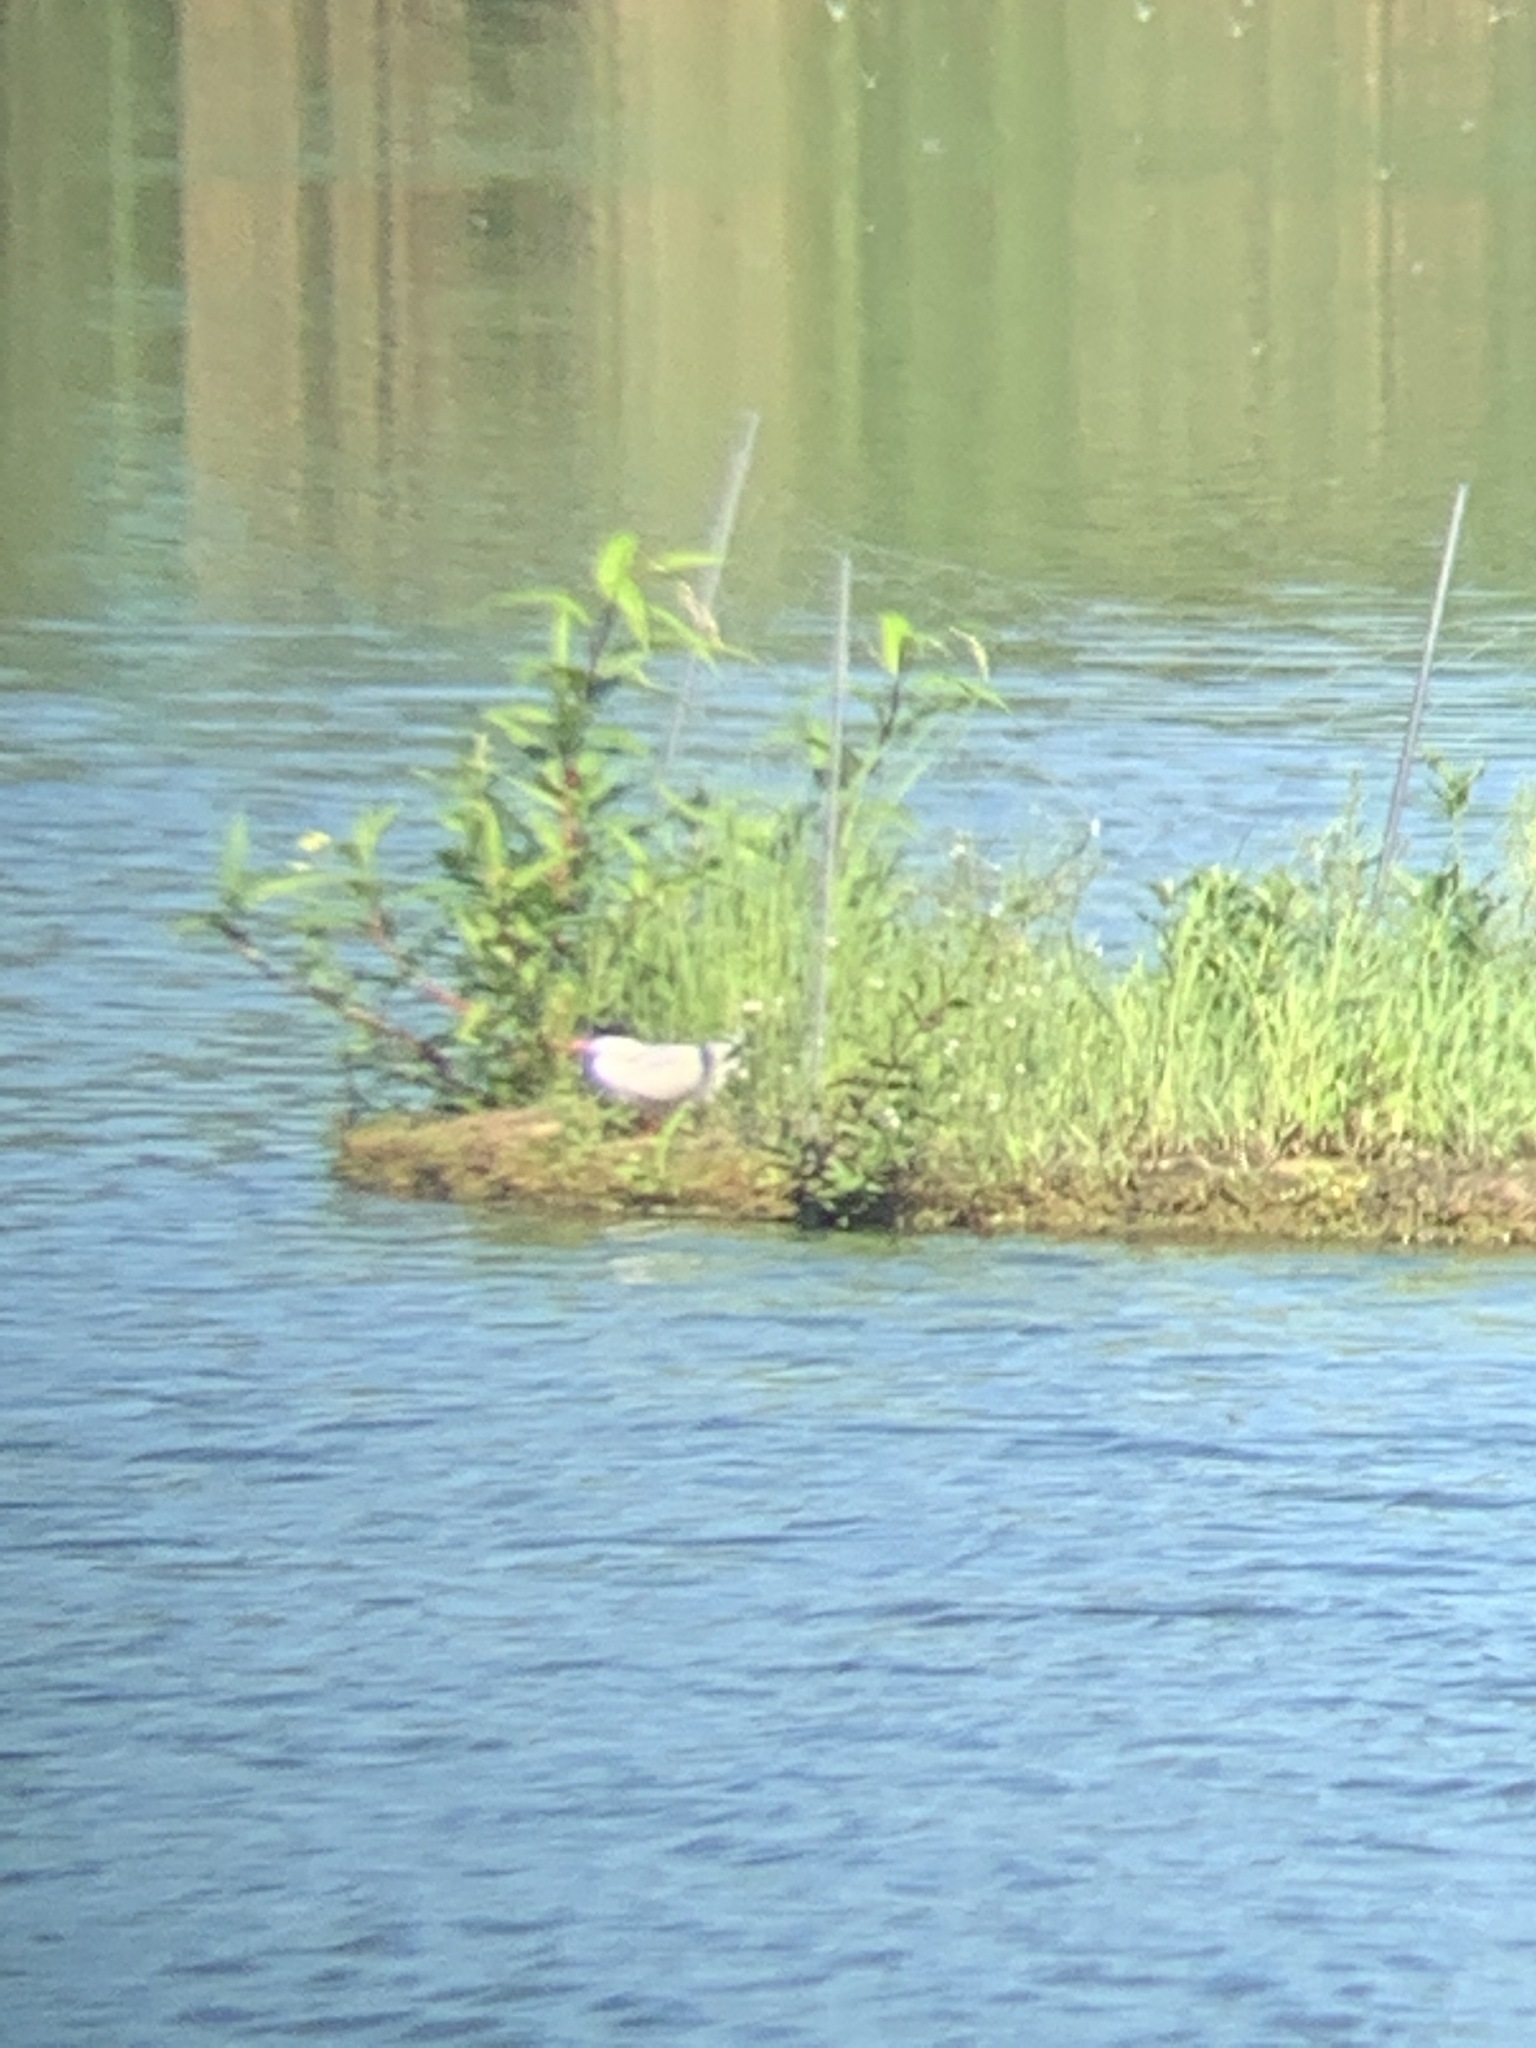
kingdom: Animalia
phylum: Chordata
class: Aves
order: Charadriiformes
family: Laridae
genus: Sterna
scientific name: Sterna hirundo
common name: Common tern
